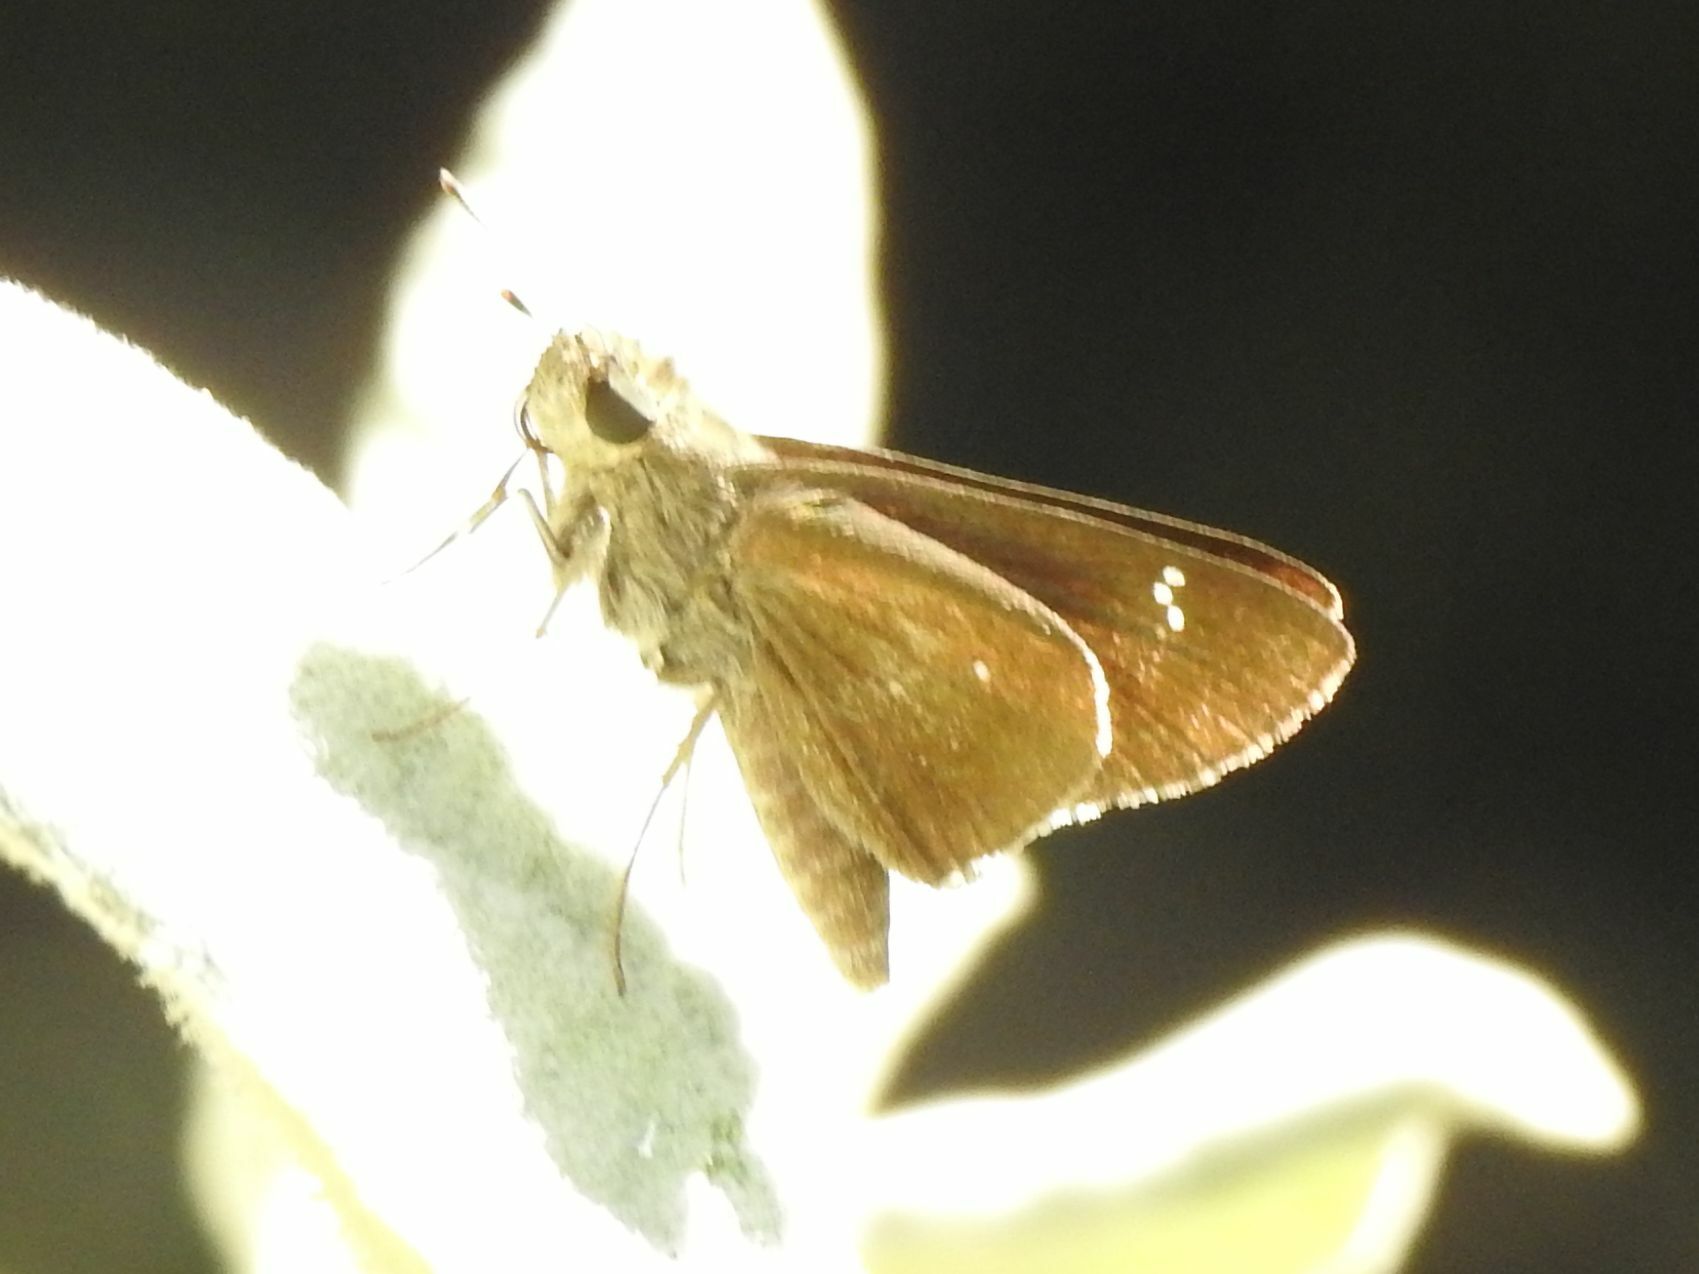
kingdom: Animalia
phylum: Arthropoda
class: Insecta
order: Lepidoptera
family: Hesperiidae
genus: Baoris
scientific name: Baoris fatuellus
